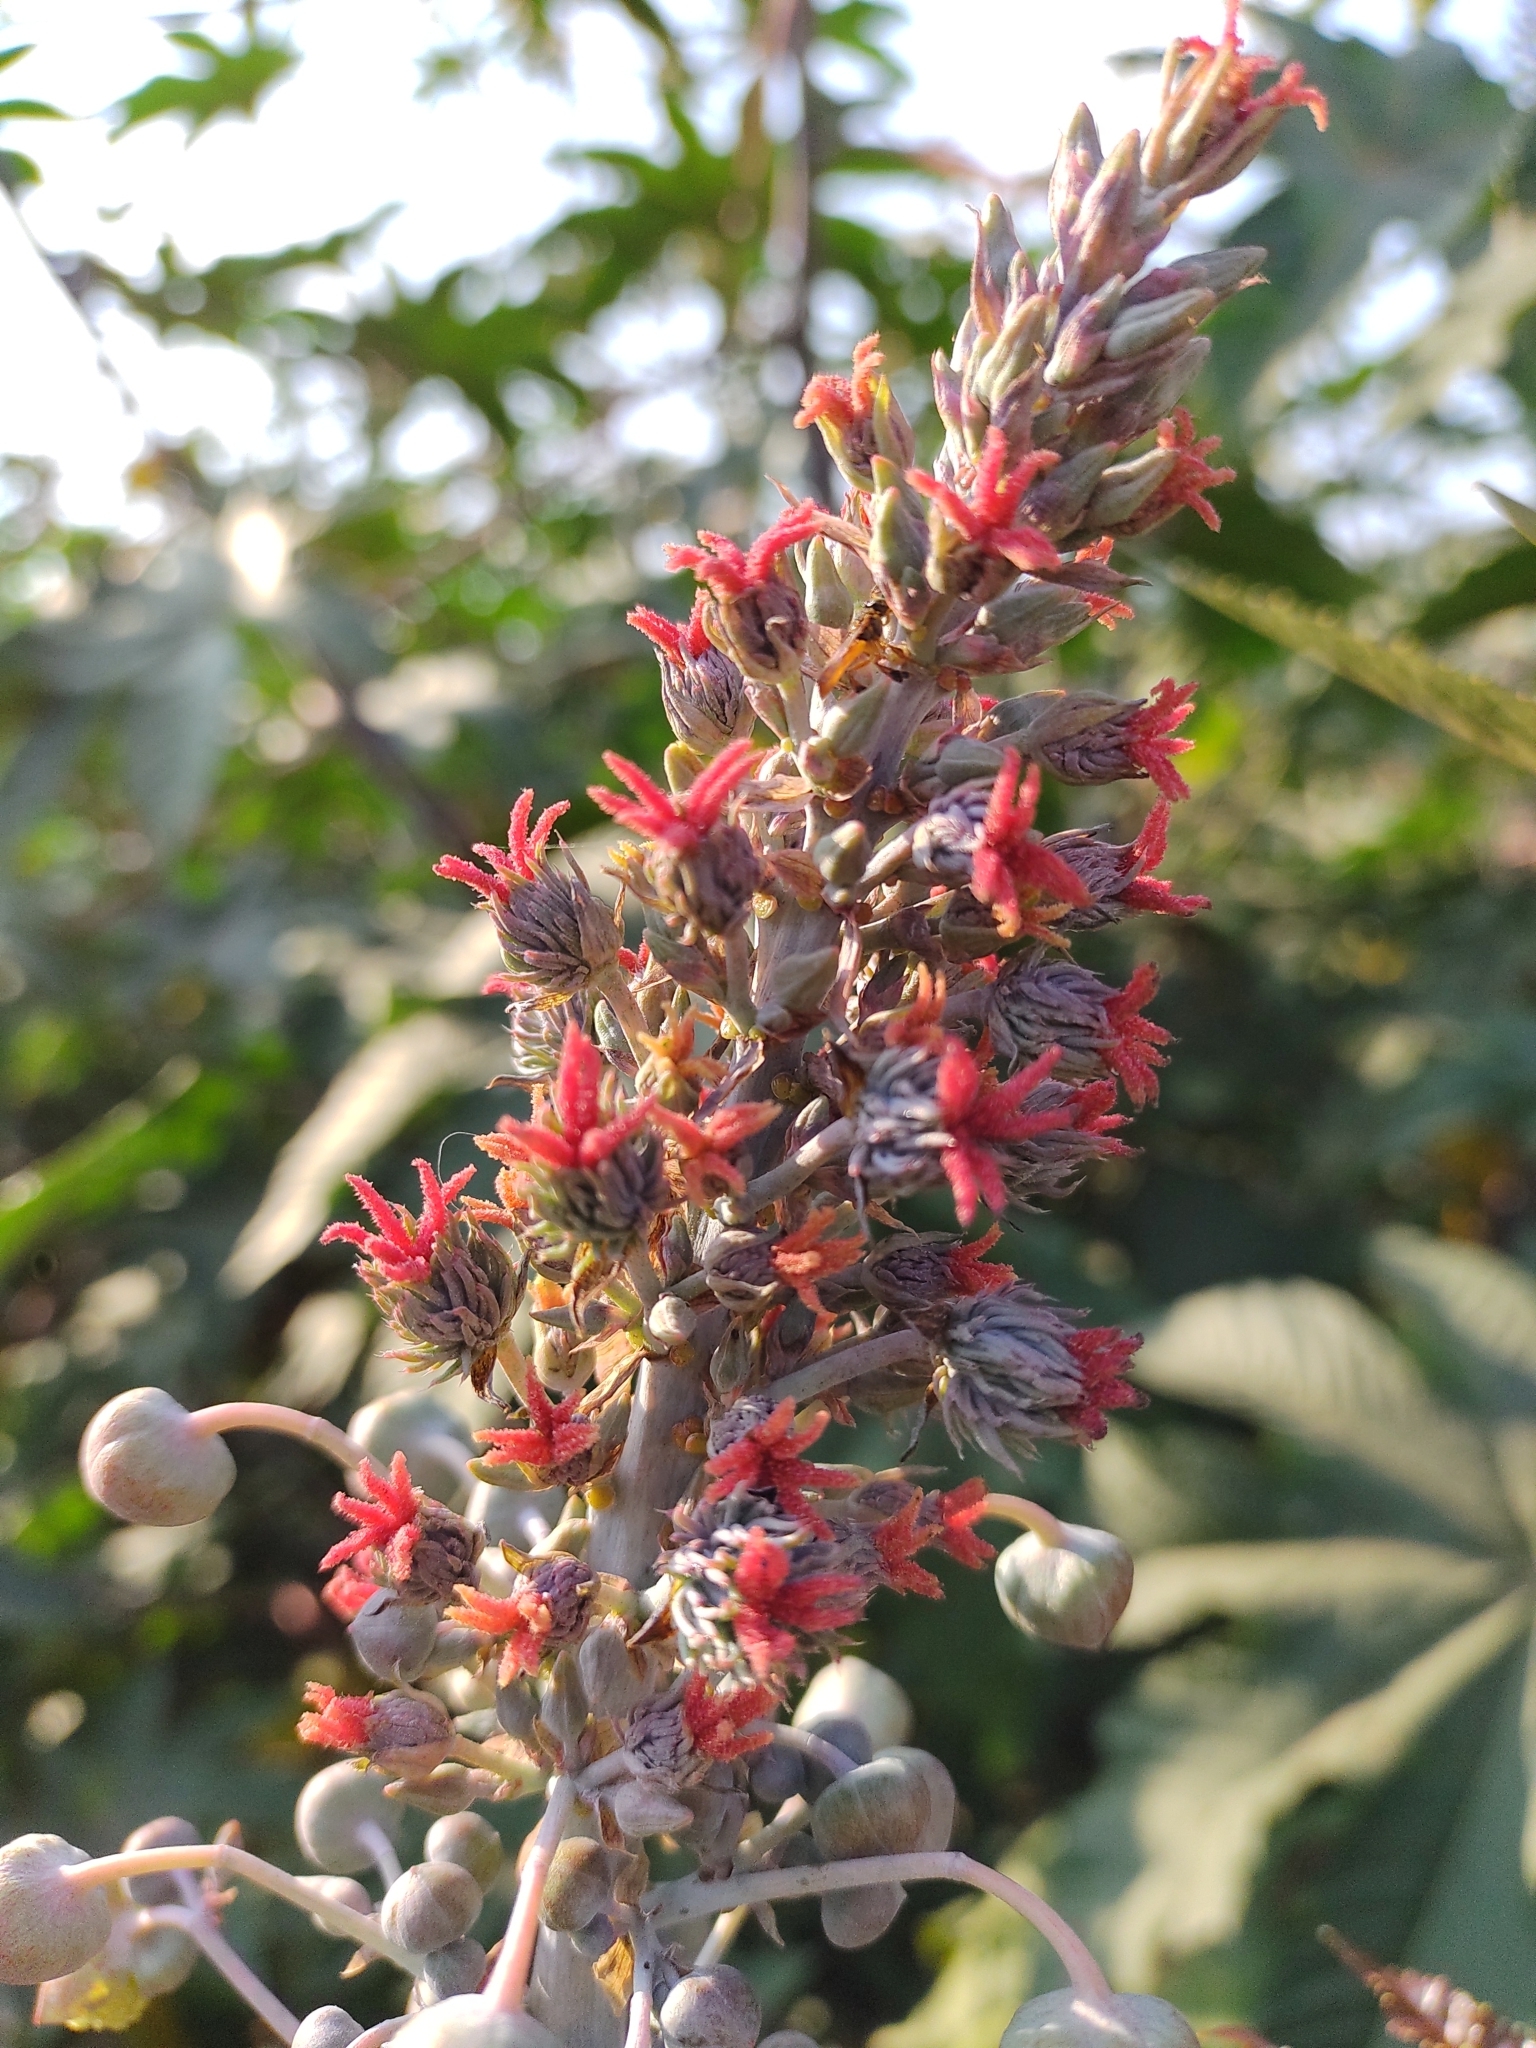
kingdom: Plantae
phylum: Tracheophyta
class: Magnoliopsida
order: Malpighiales
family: Euphorbiaceae
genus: Ricinus
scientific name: Ricinus communis
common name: Castor-oil-plant
